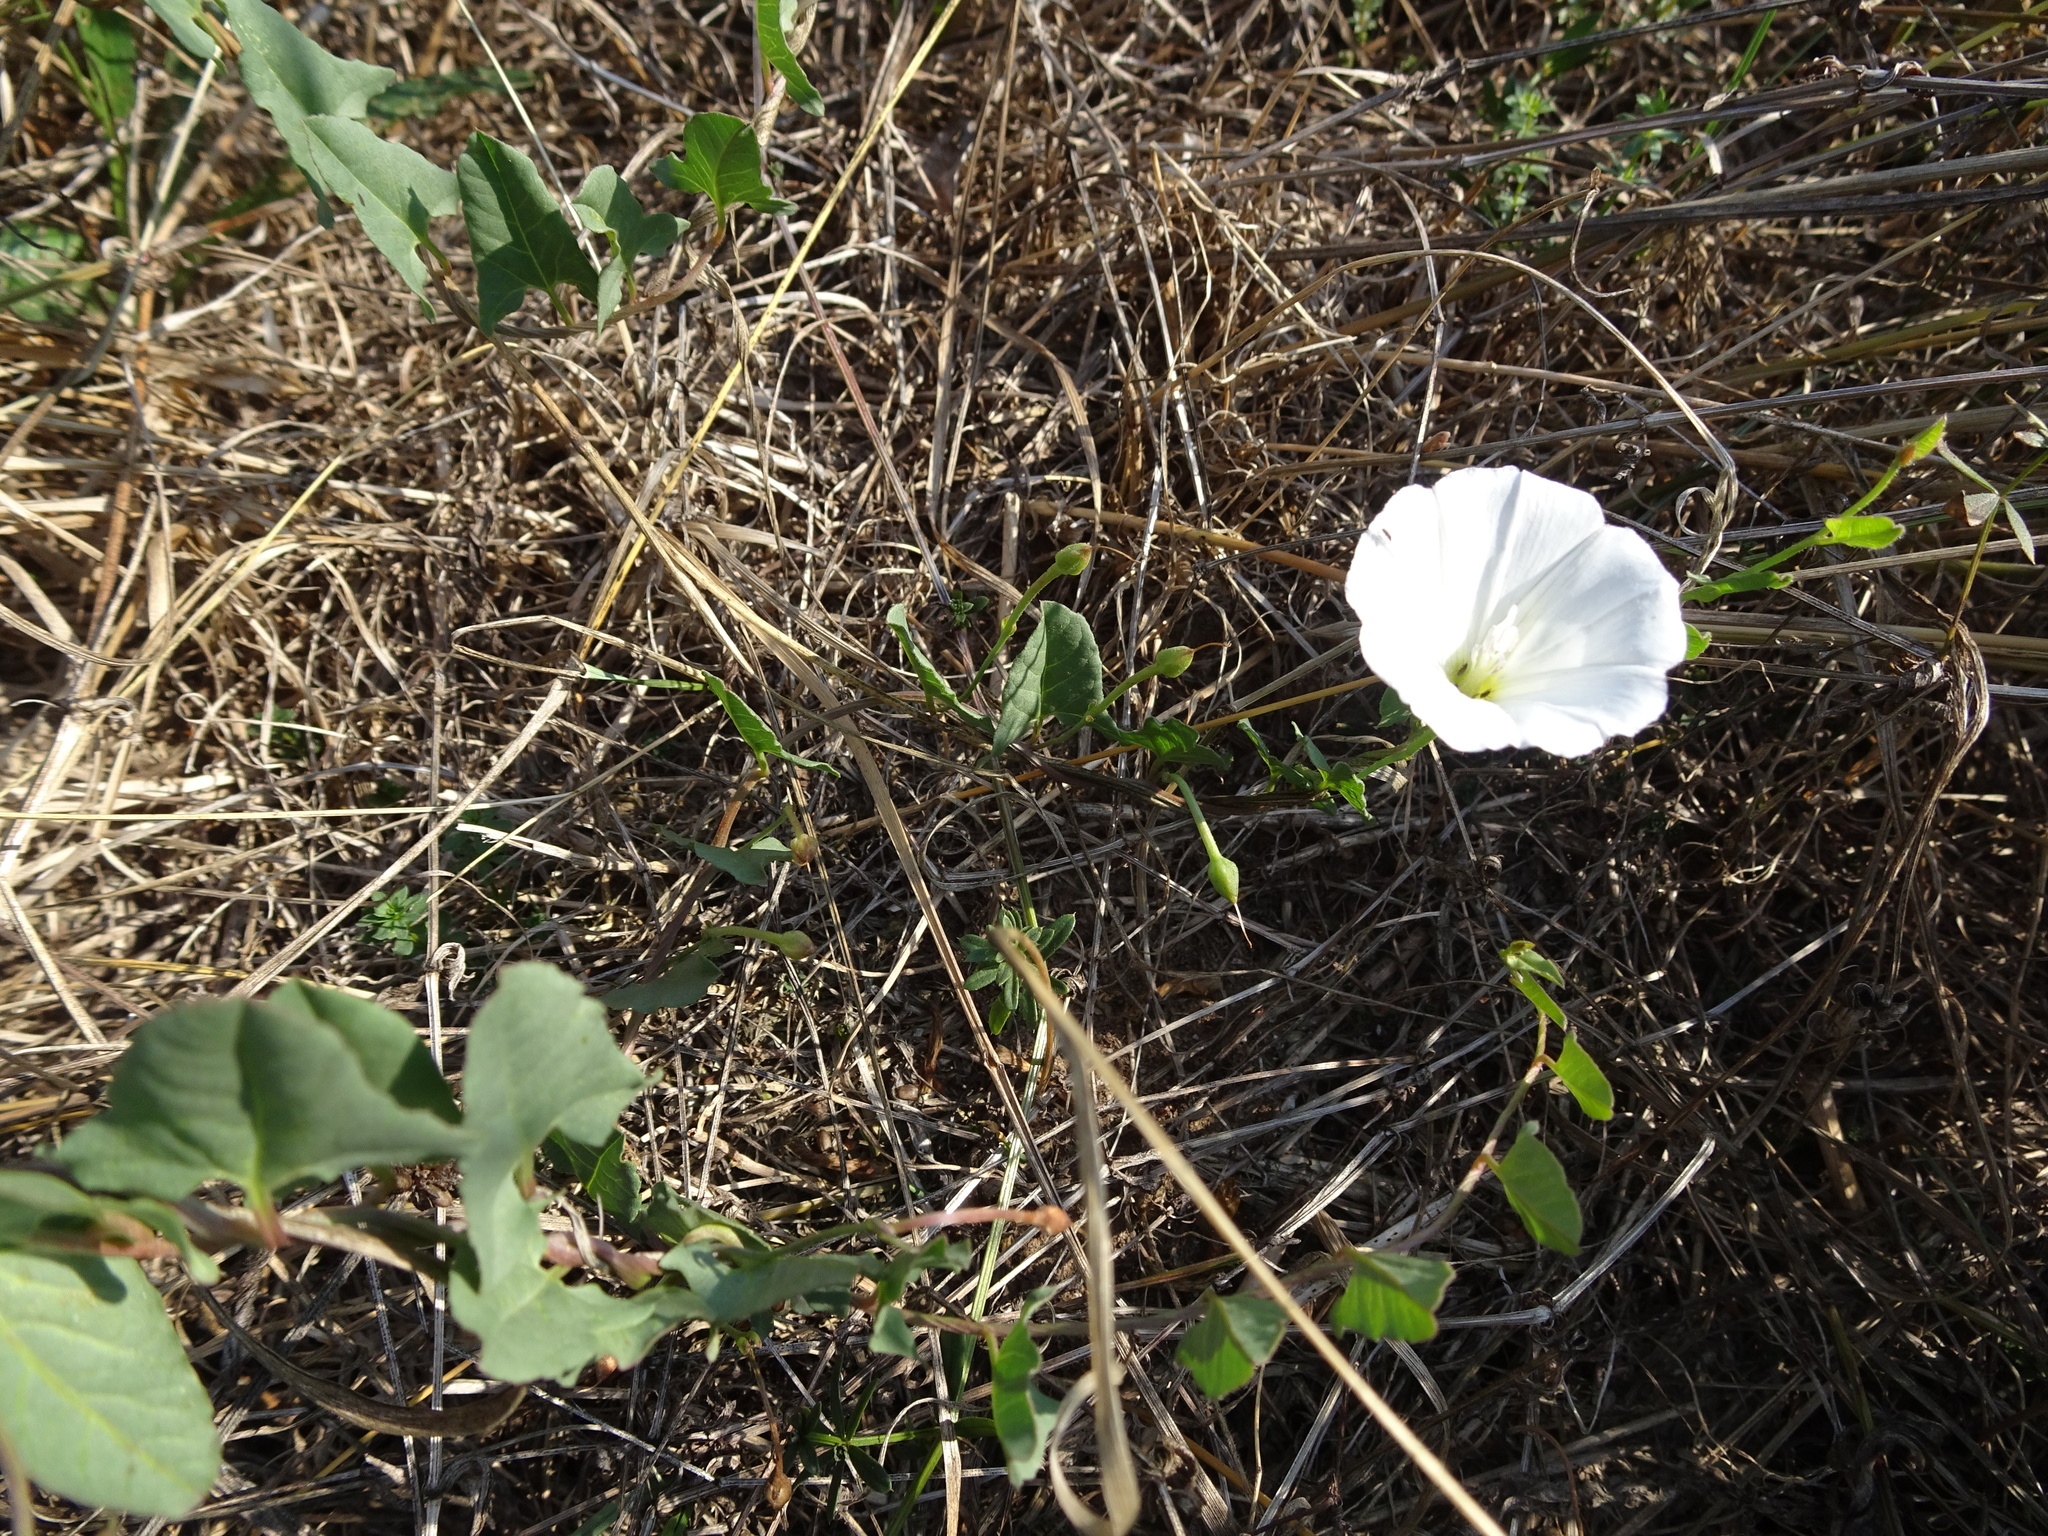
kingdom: Plantae
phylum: Tracheophyta
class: Magnoliopsida
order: Solanales
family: Convolvulaceae
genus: Calystegia
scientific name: Calystegia sepium
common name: Hedge bindweed
